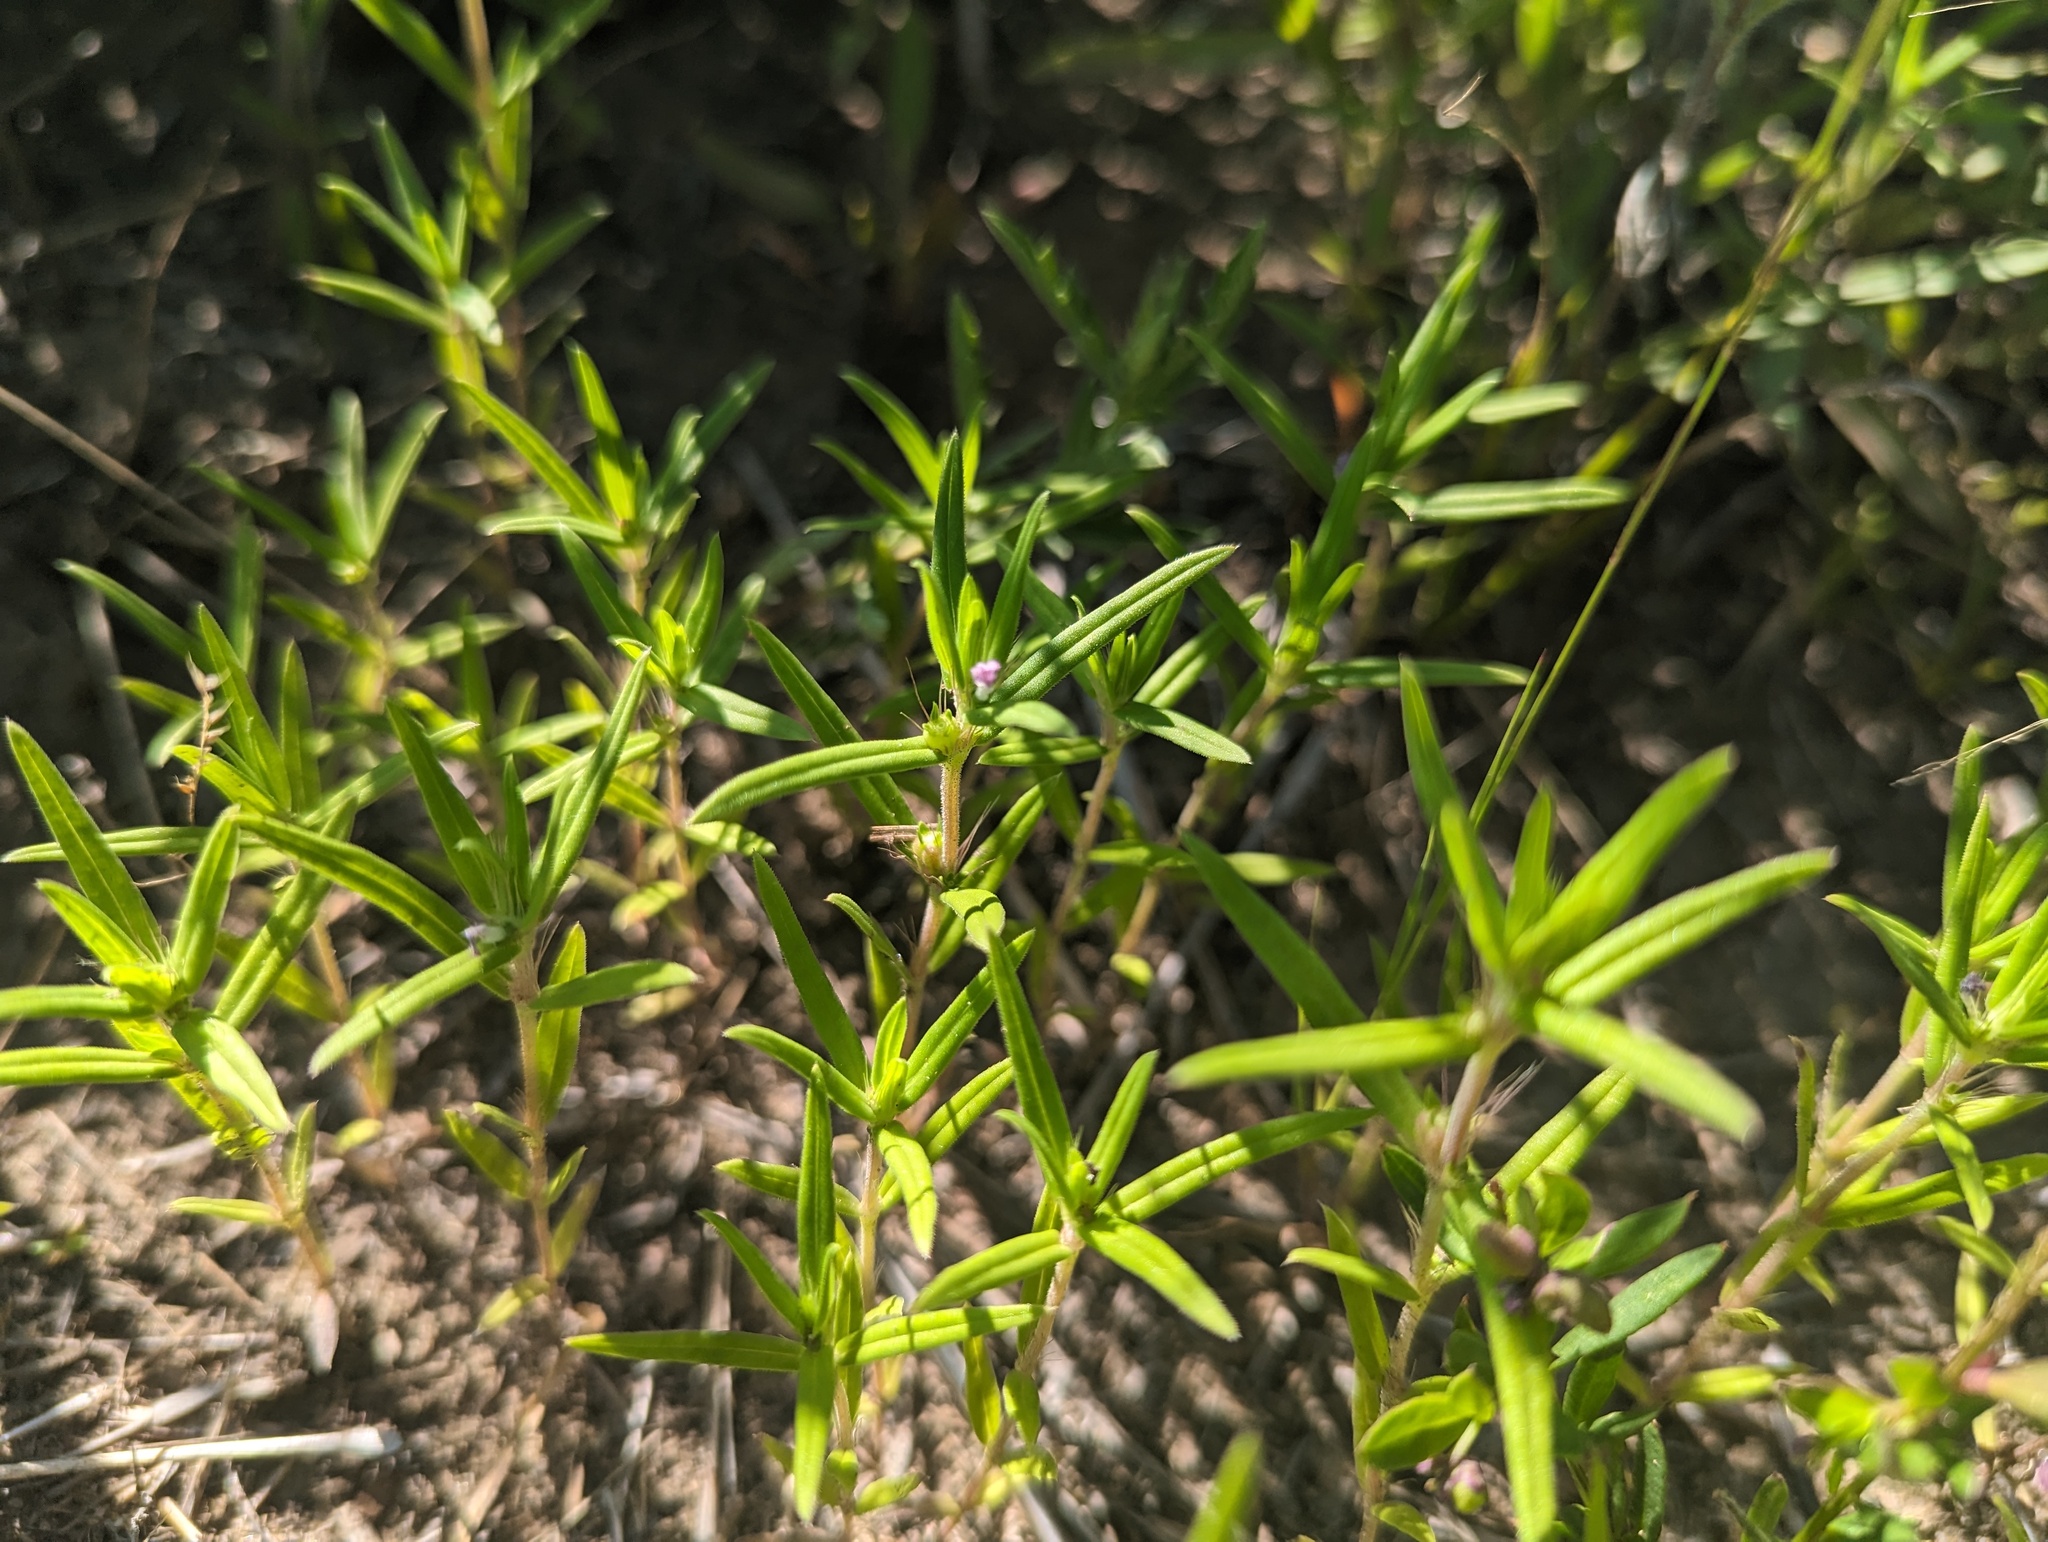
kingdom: Plantae
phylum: Tracheophyta
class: Magnoliopsida
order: Gentianales
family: Rubiaceae
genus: Hexasepalum
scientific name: Hexasepalum teres
